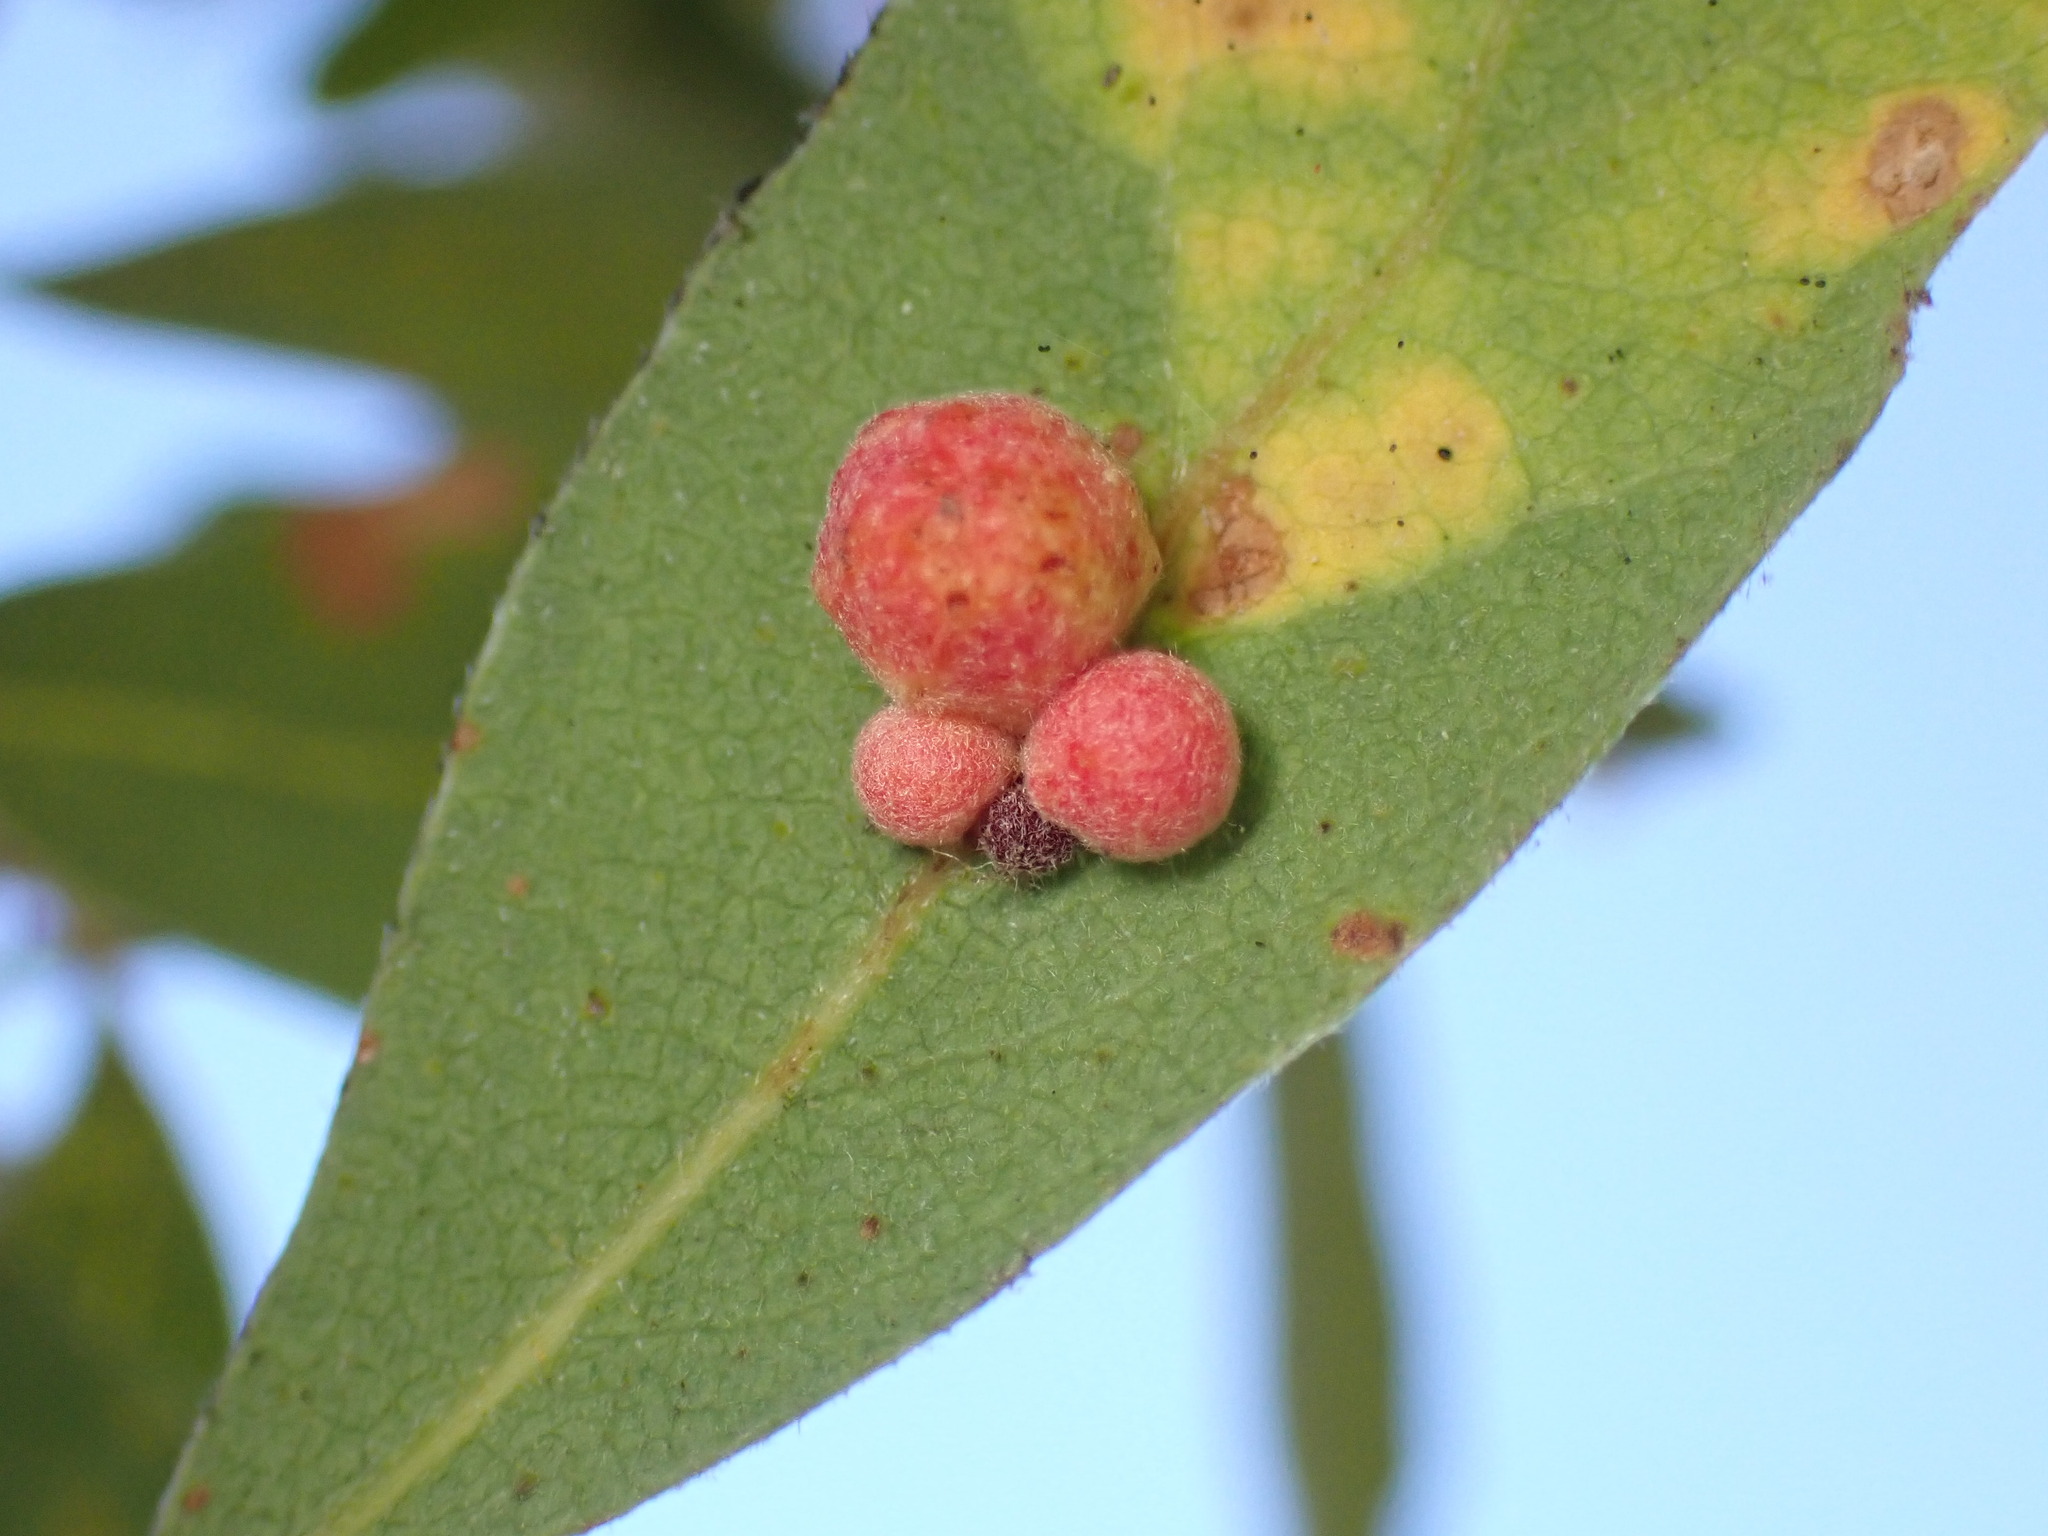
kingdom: Animalia
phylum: Arthropoda
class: Insecta
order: Hymenoptera
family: Cynipidae
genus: Andricus
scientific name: Andricus
